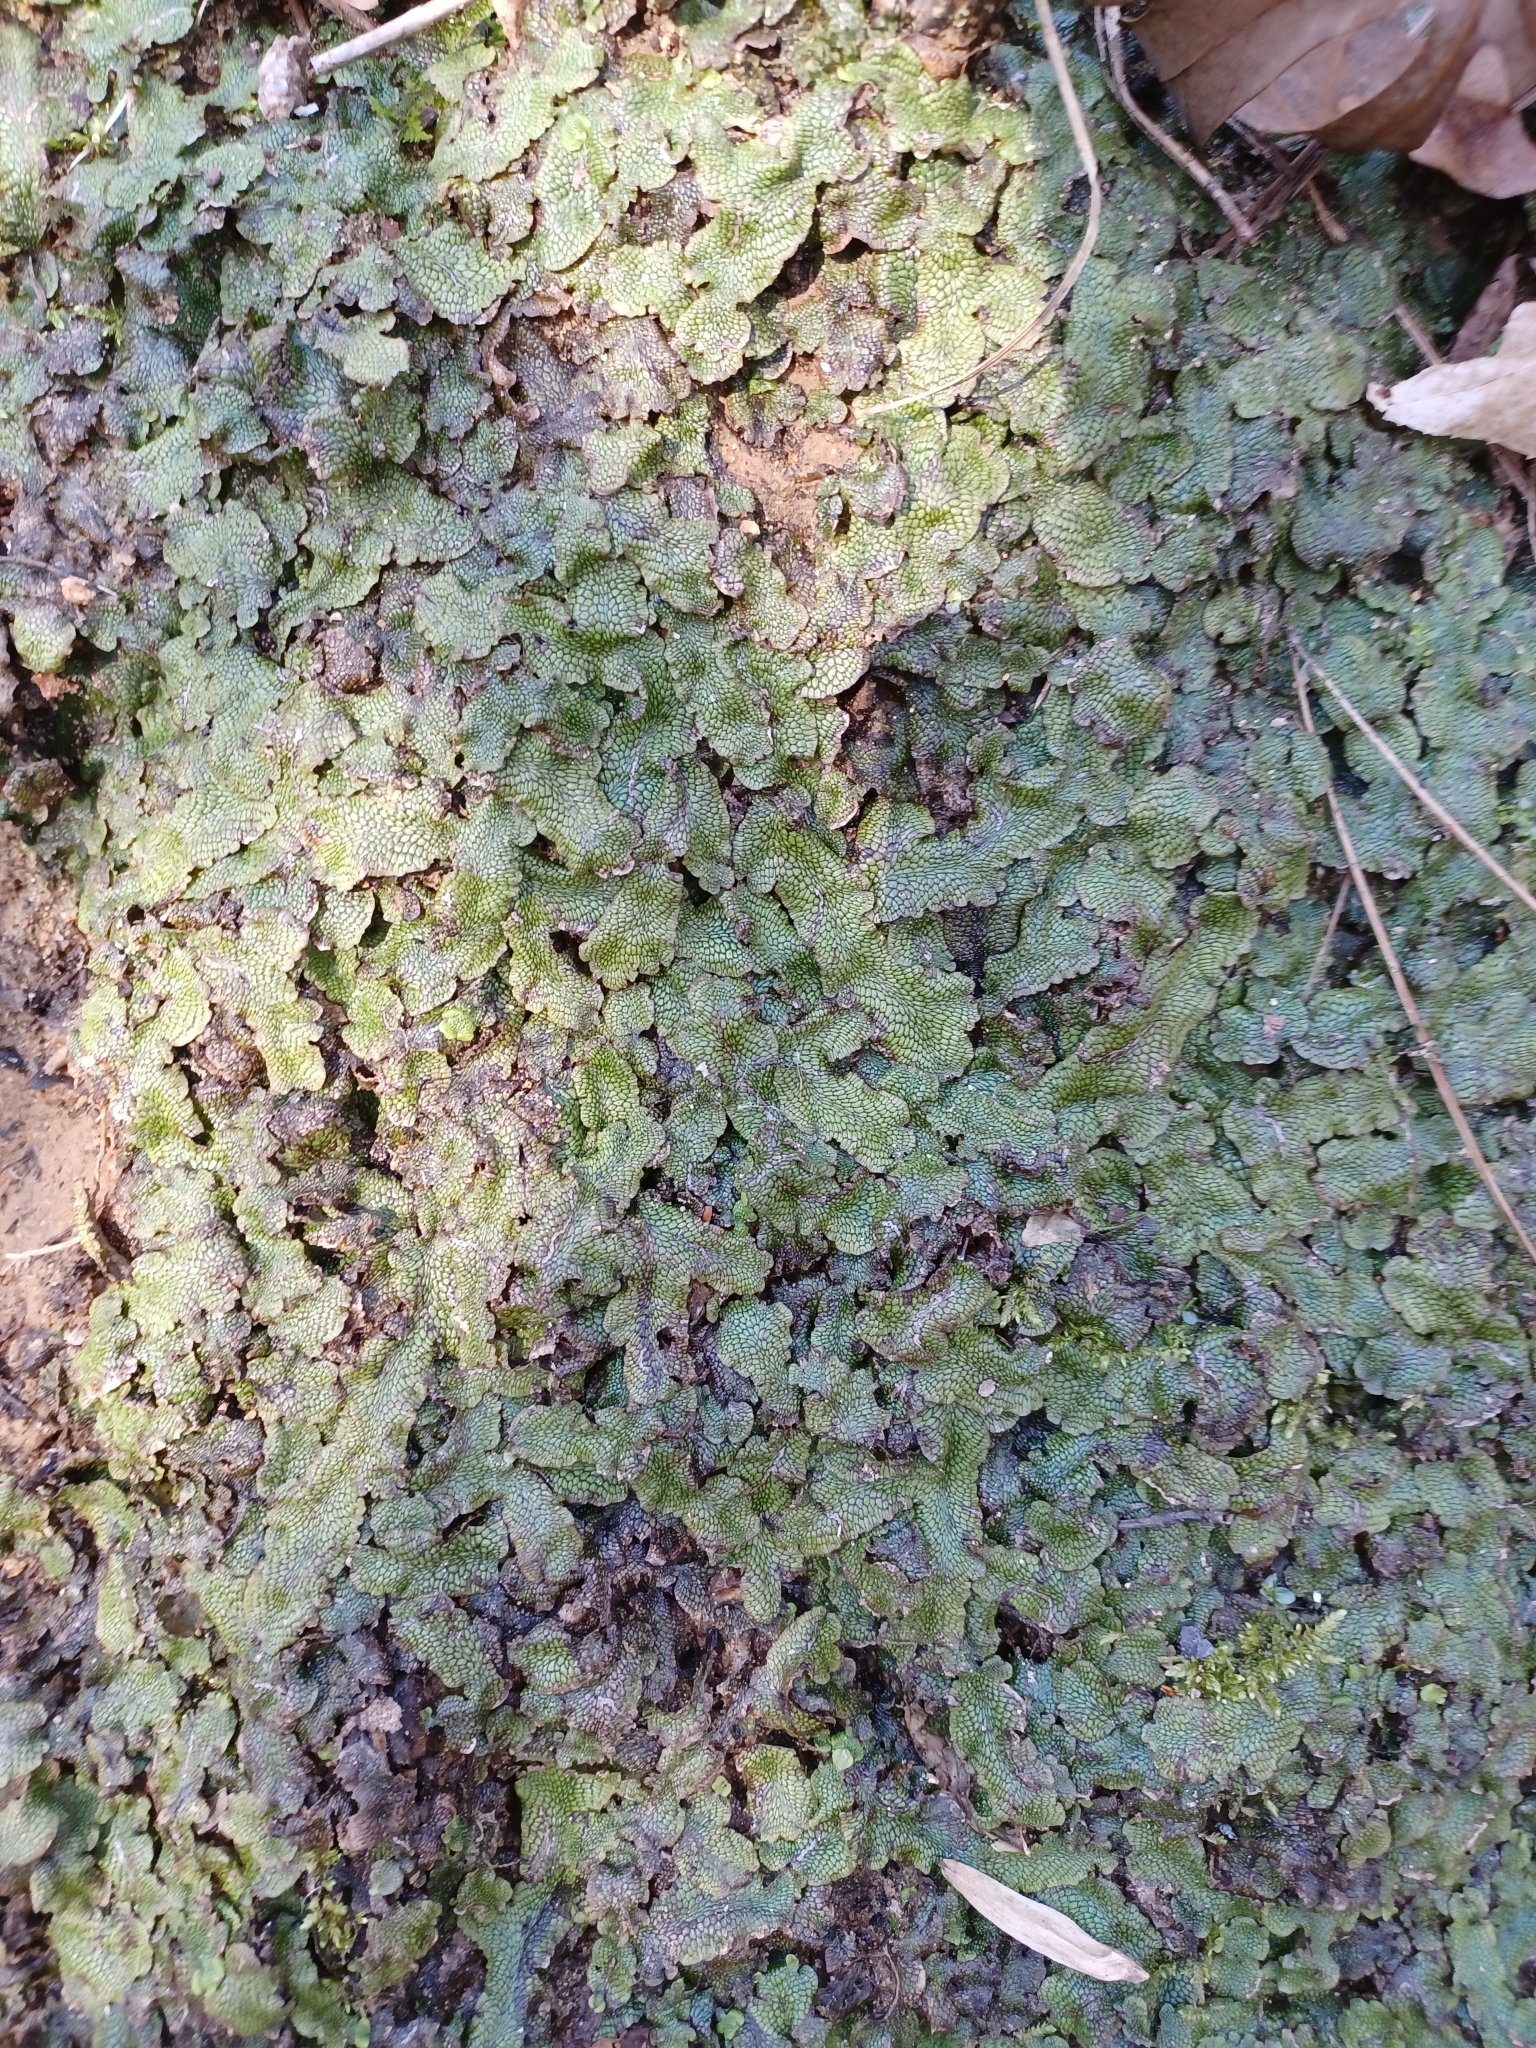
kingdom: Plantae
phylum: Marchantiophyta
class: Marchantiopsida
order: Marchantiales
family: Conocephalaceae
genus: Conocephalum
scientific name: Conocephalum salebrosum
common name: Cat-tongue liverwort
